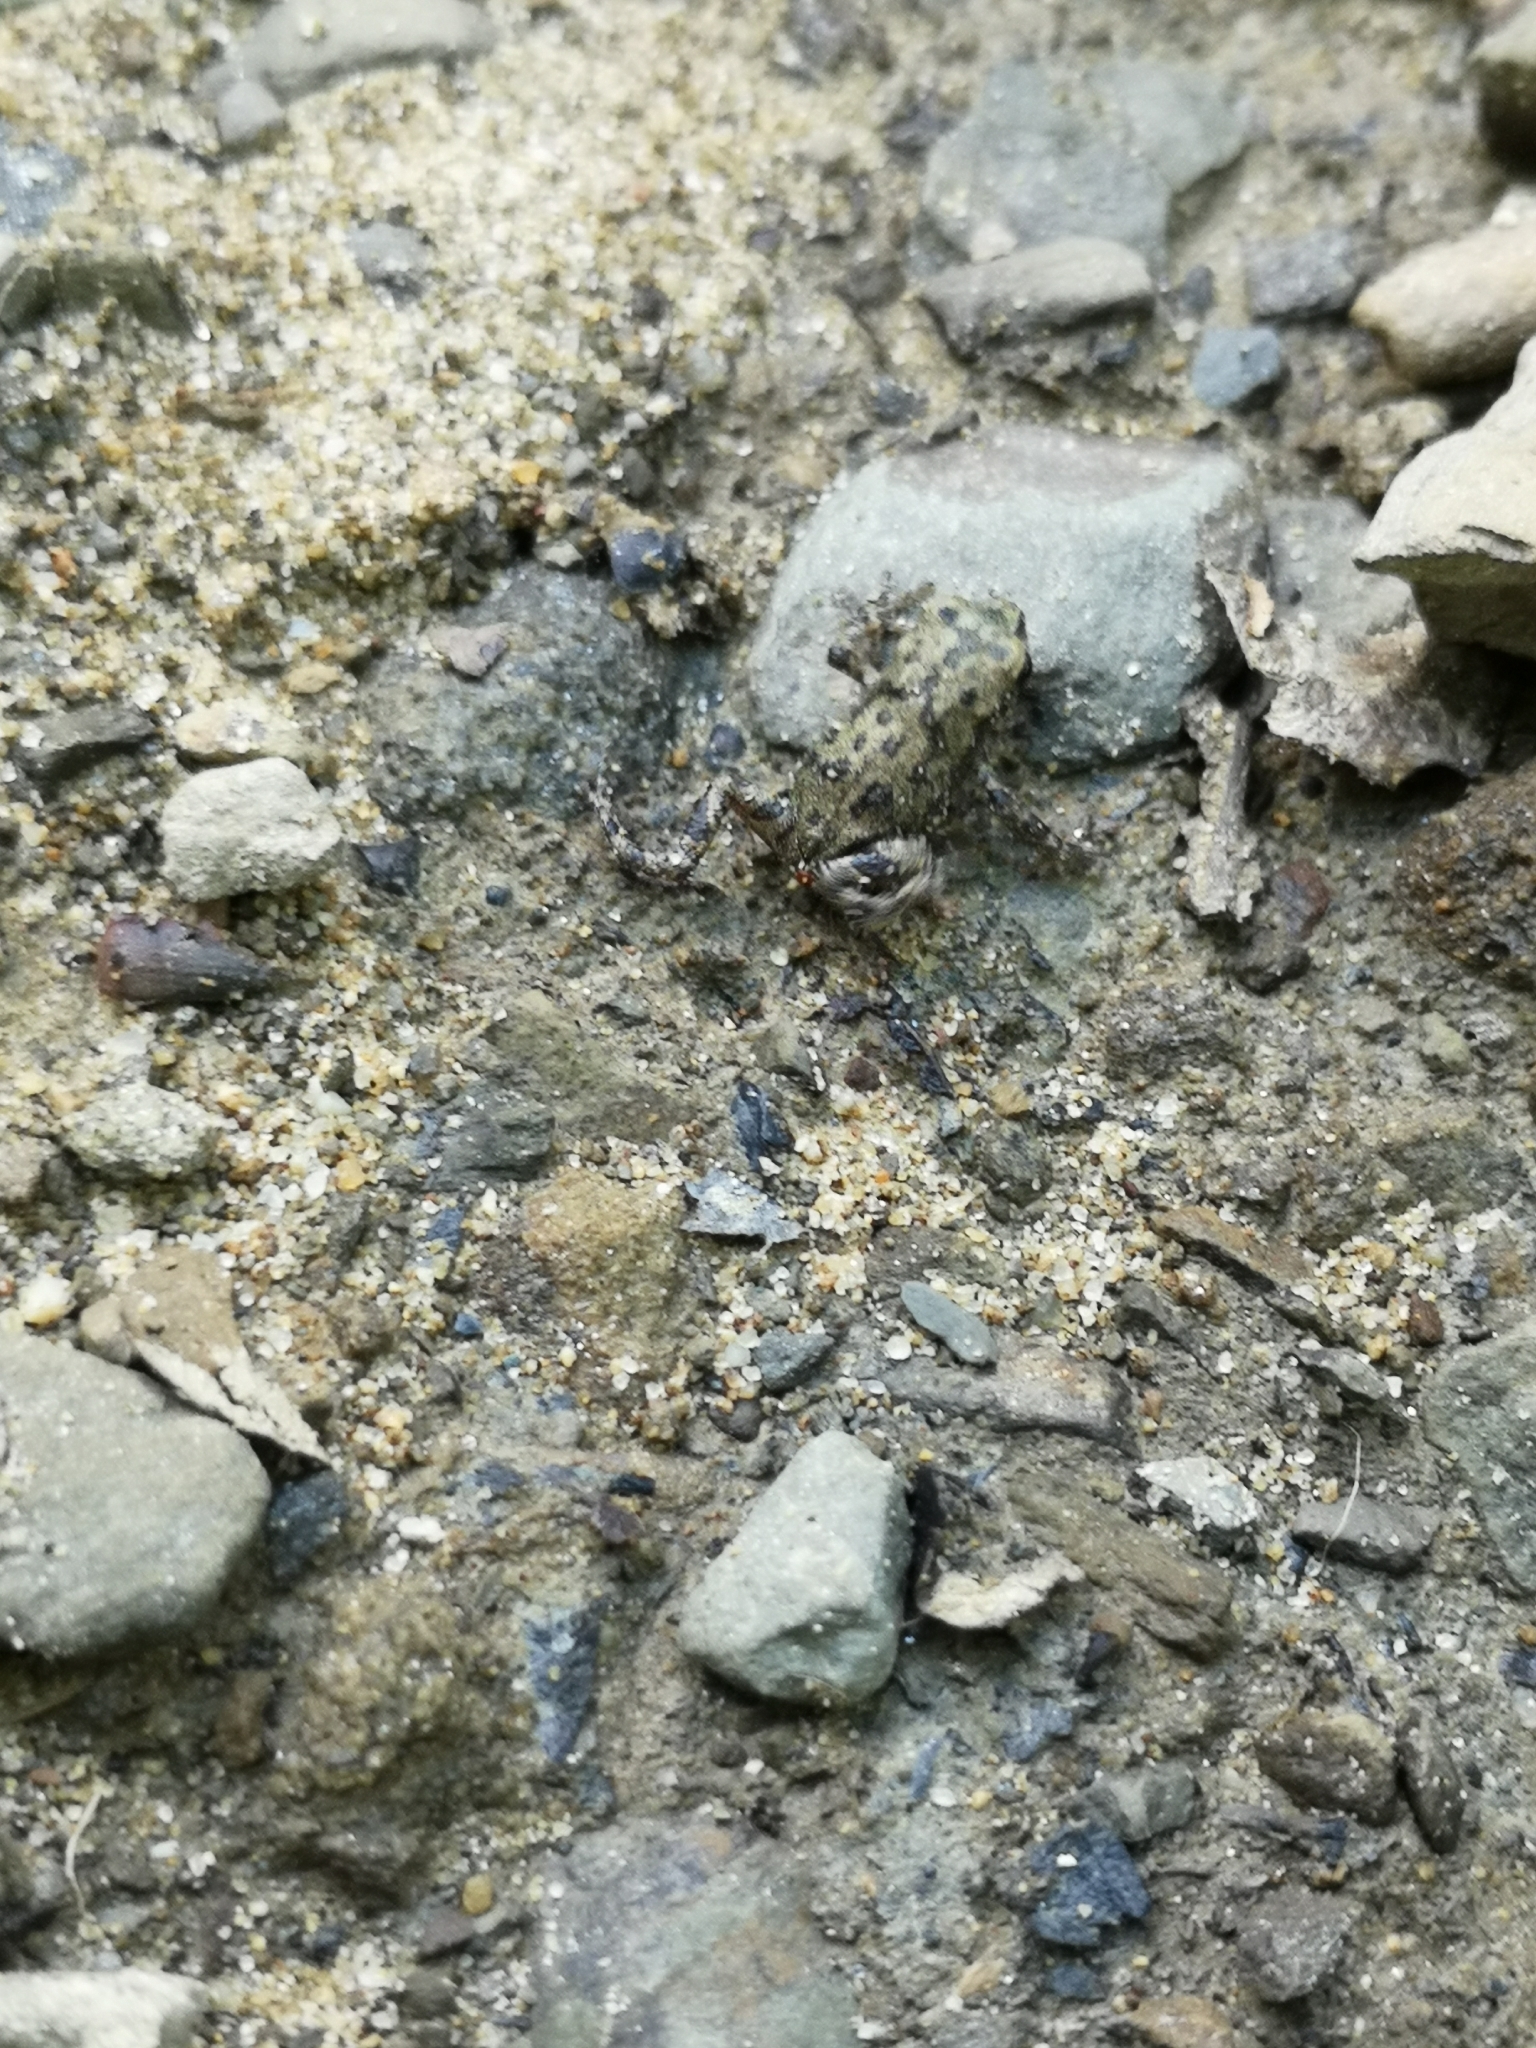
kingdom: Animalia
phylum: Chordata
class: Amphibia
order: Anura
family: Bufonidae
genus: Bufo
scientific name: Bufo bufo
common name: Common toad
